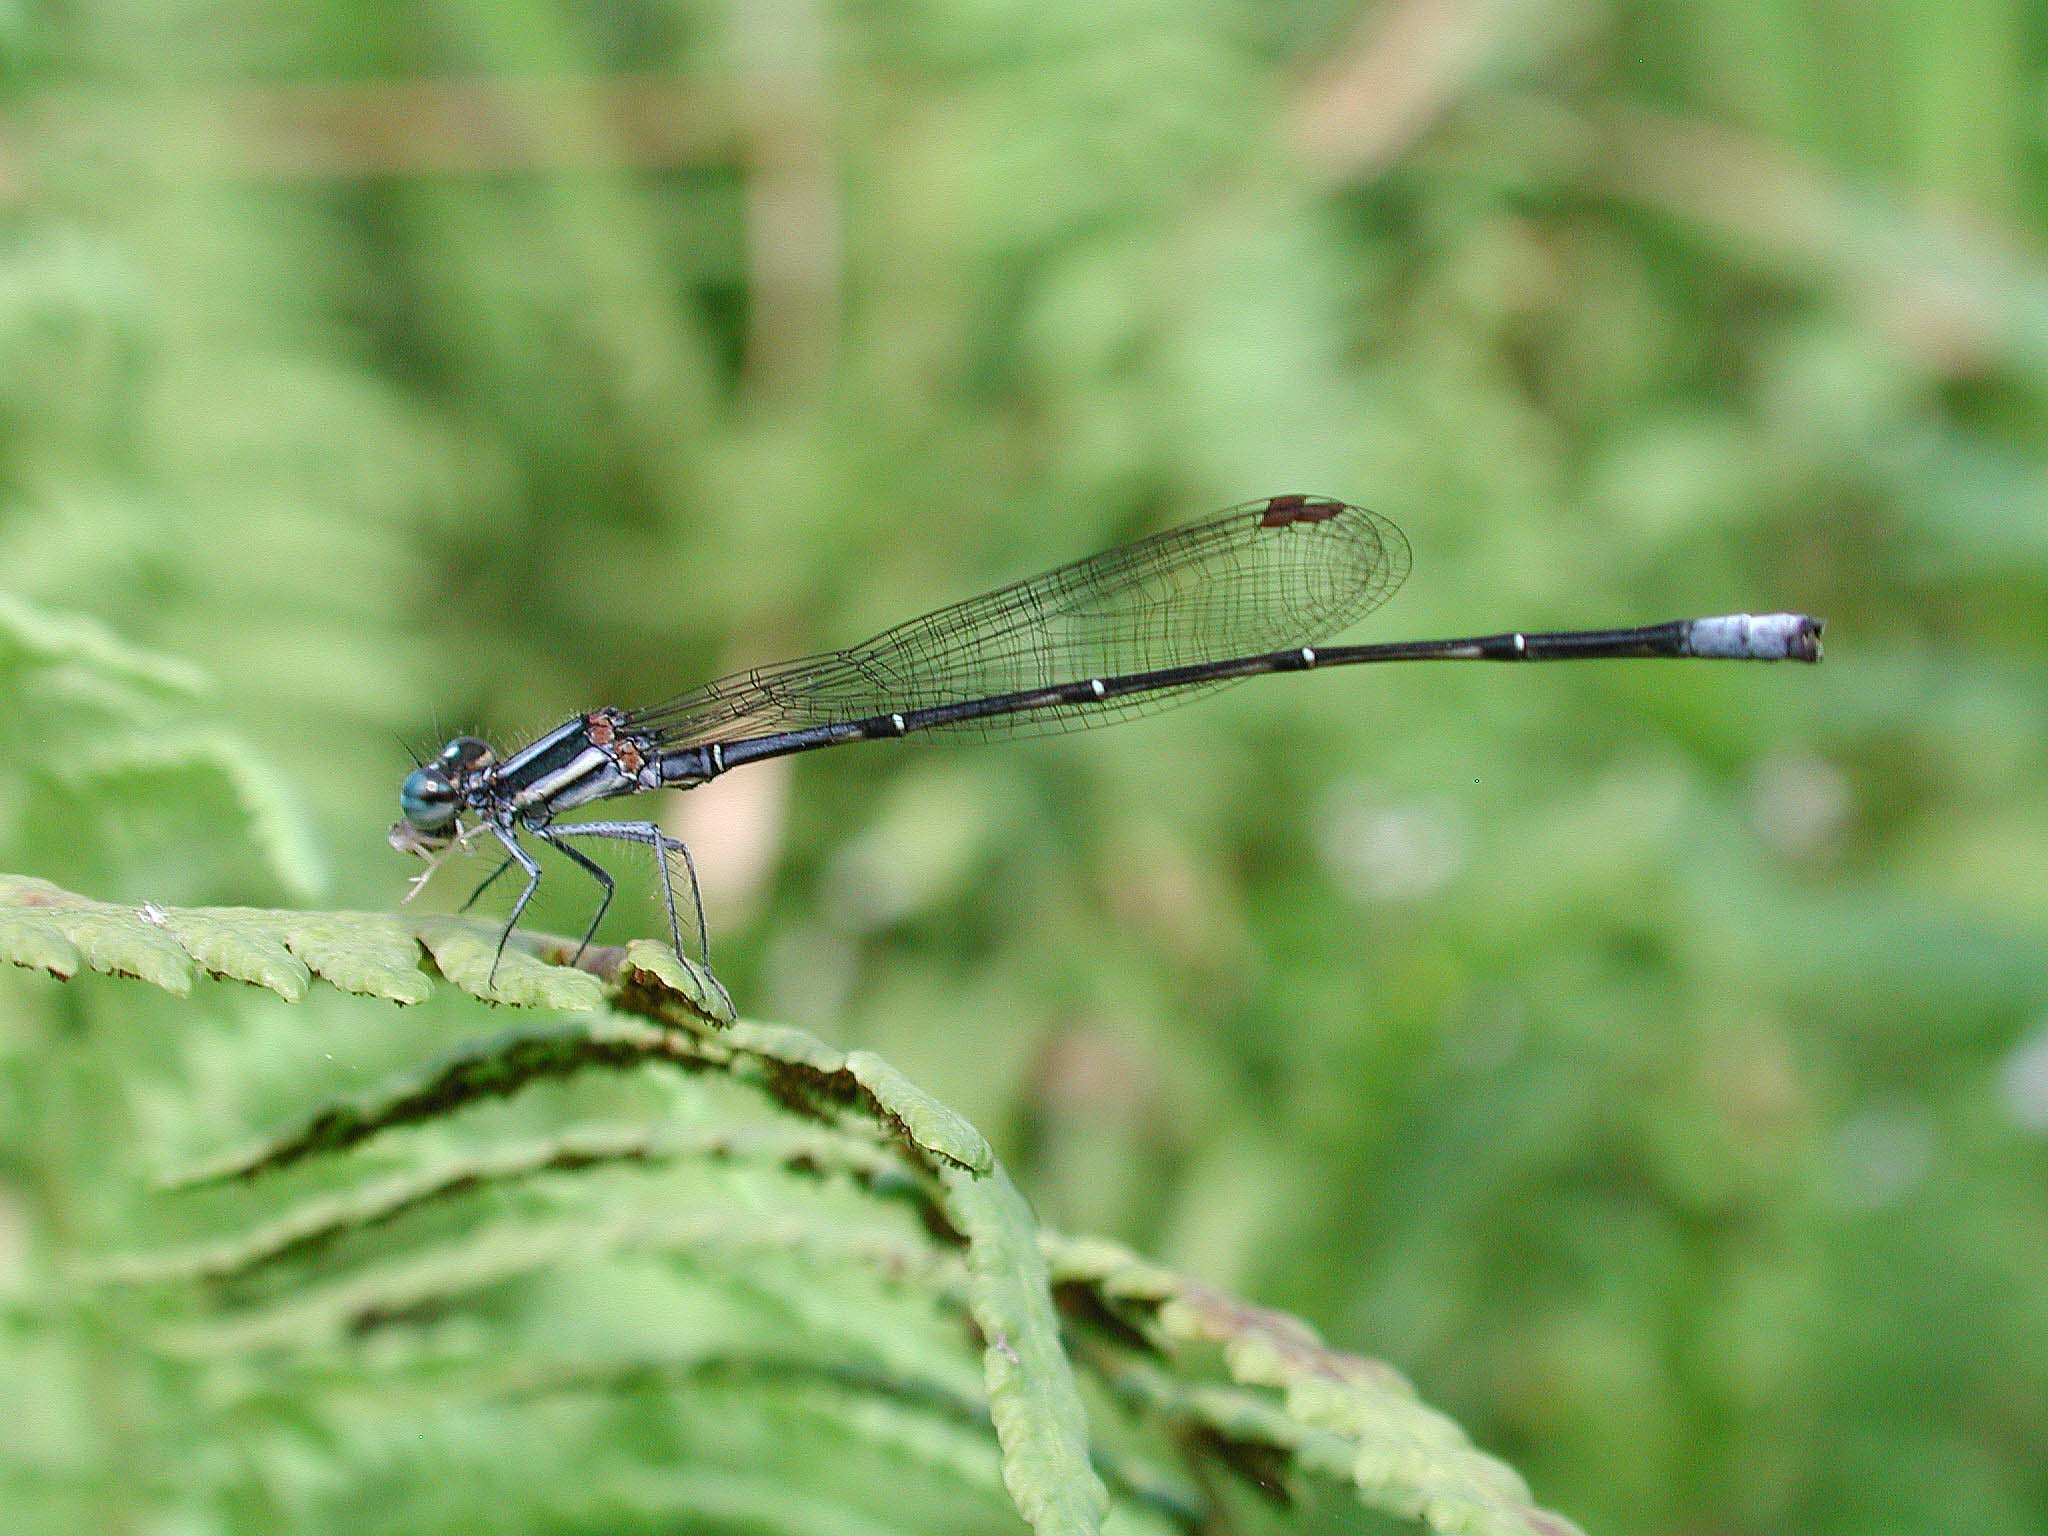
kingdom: Animalia
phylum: Arthropoda
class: Insecta
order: Odonata
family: Platycnemididae
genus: Elattoneura
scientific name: Elattoneura glauca
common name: Common threadtail
